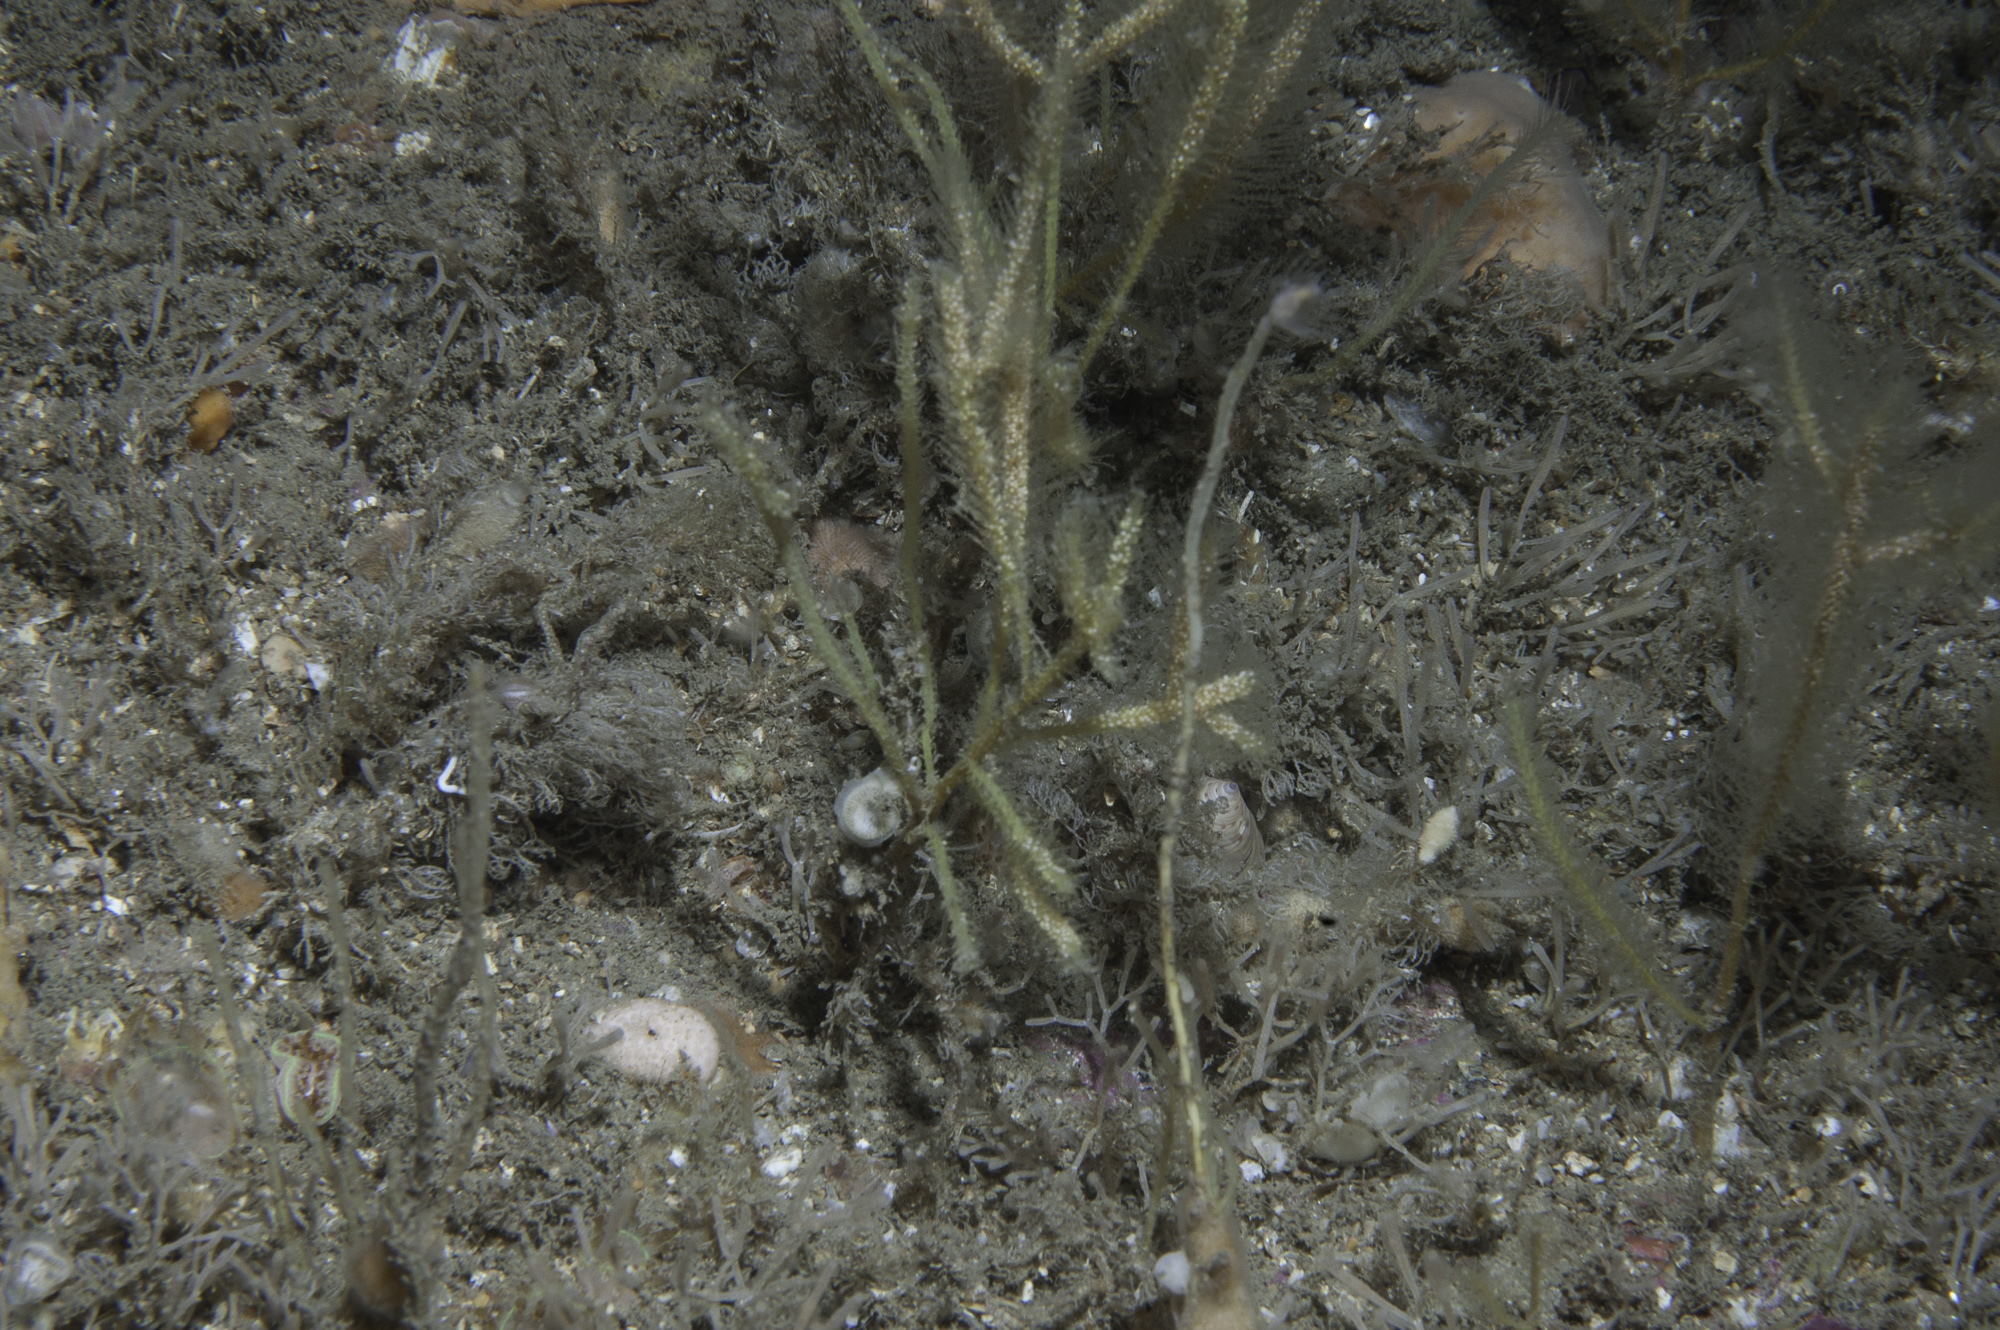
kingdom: Animalia
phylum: Cnidaria
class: Hydrozoa
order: Leptothecata
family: Plumulariidae
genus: Nemertesia
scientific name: Nemertesia ramosa
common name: Hydroid
